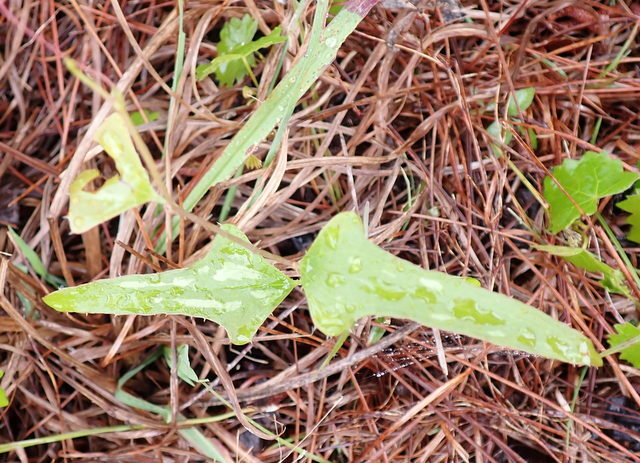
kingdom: Plantae
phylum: Tracheophyta
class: Liliopsida
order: Liliales
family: Smilacaceae
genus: Smilax
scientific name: Smilax bona-nox
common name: Catbrier
